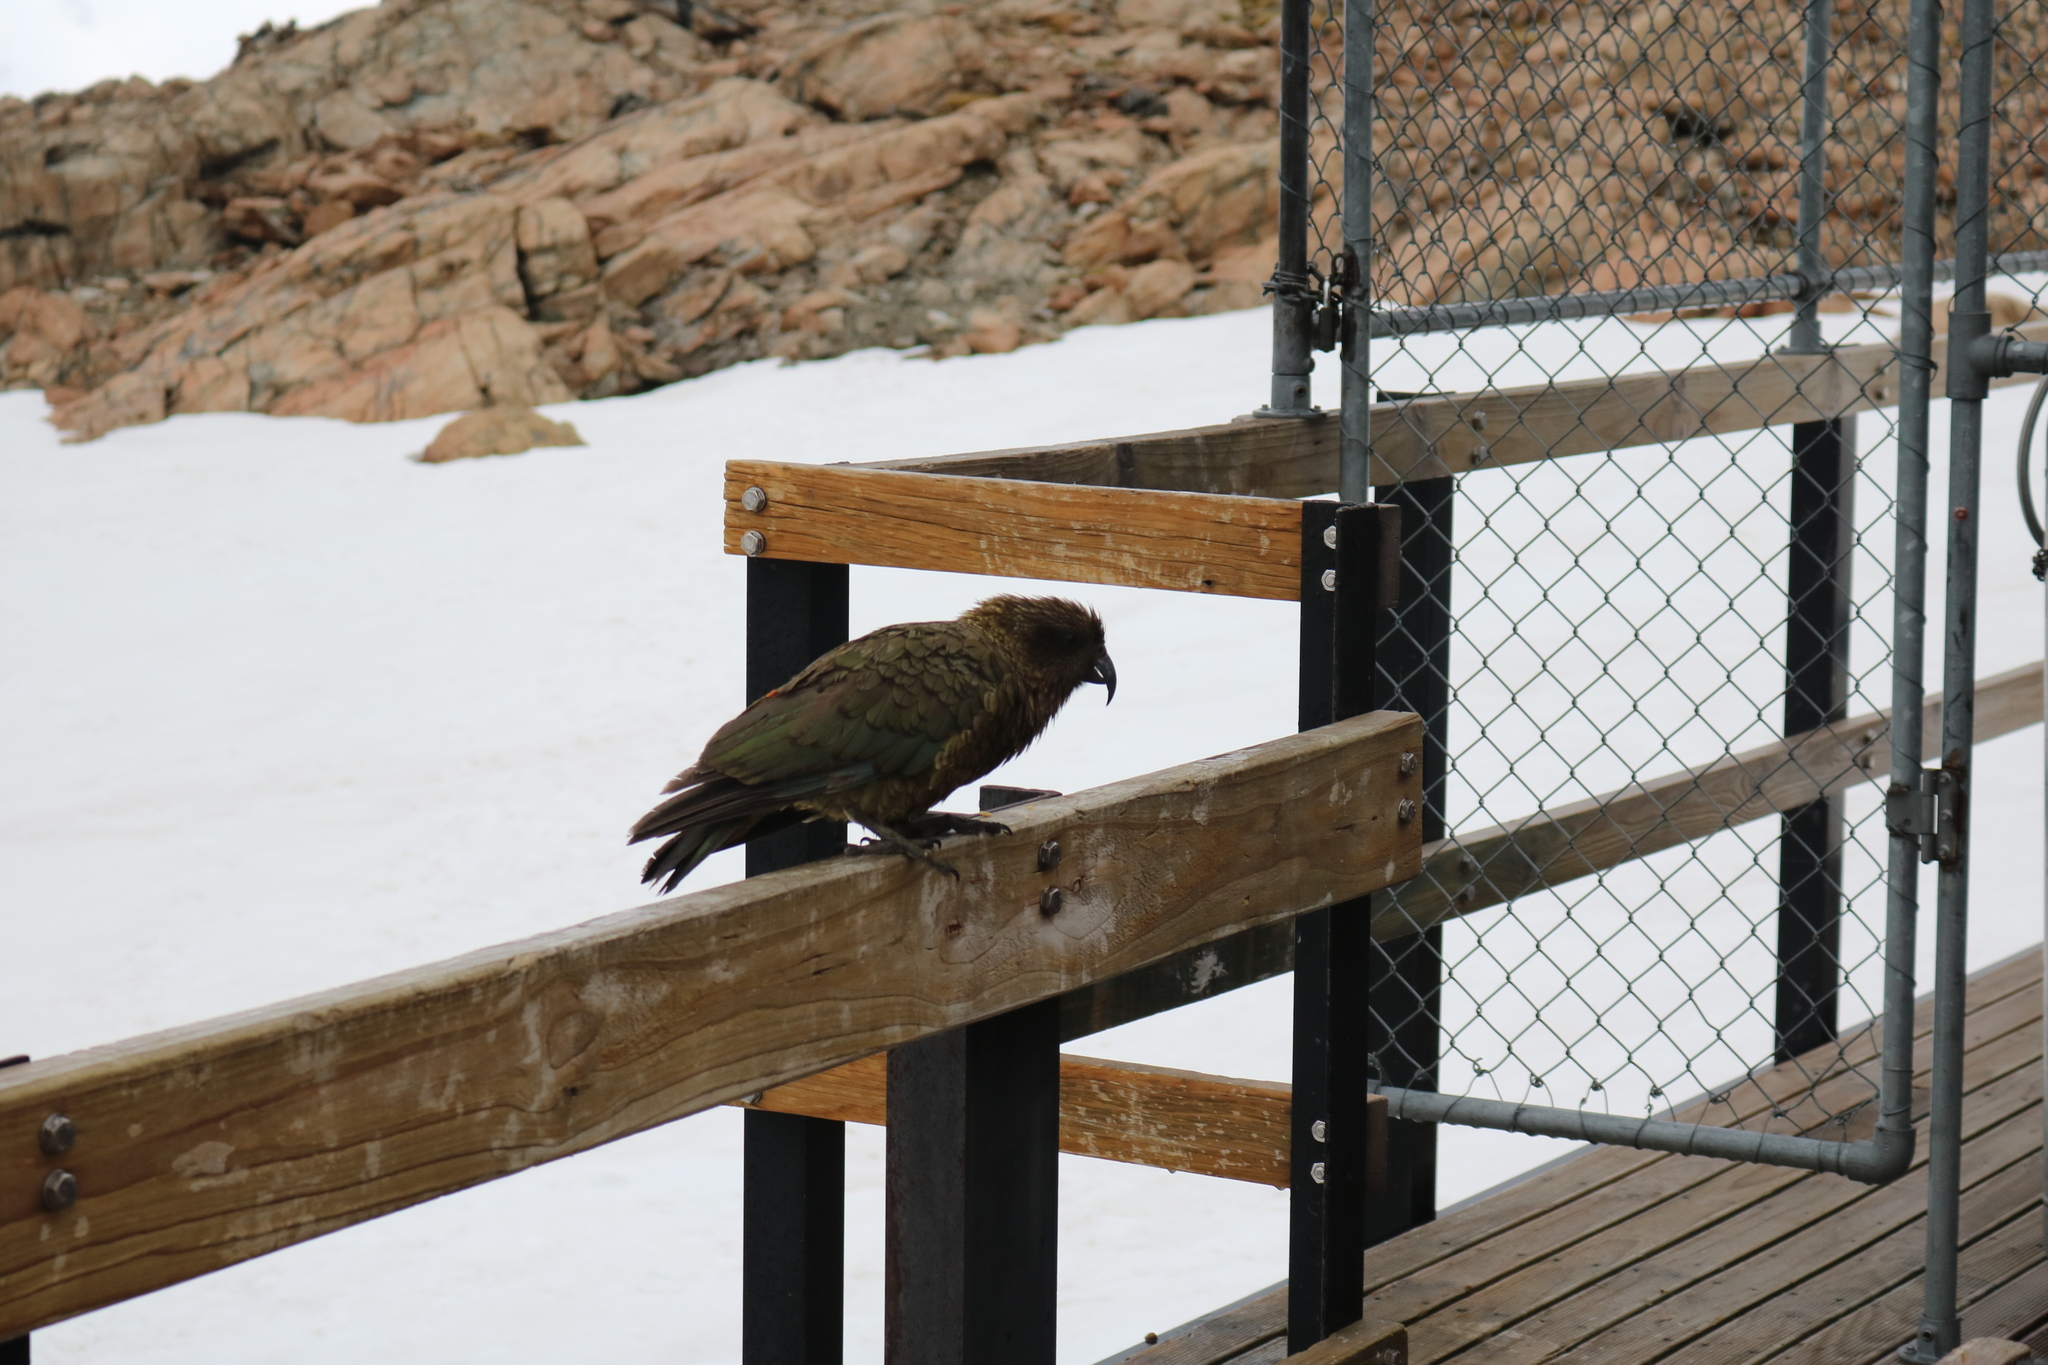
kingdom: Animalia
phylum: Chordata
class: Aves
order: Psittaciformes
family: Psittacidae
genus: Nestor
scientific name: Nestor notabilis
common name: Kea
